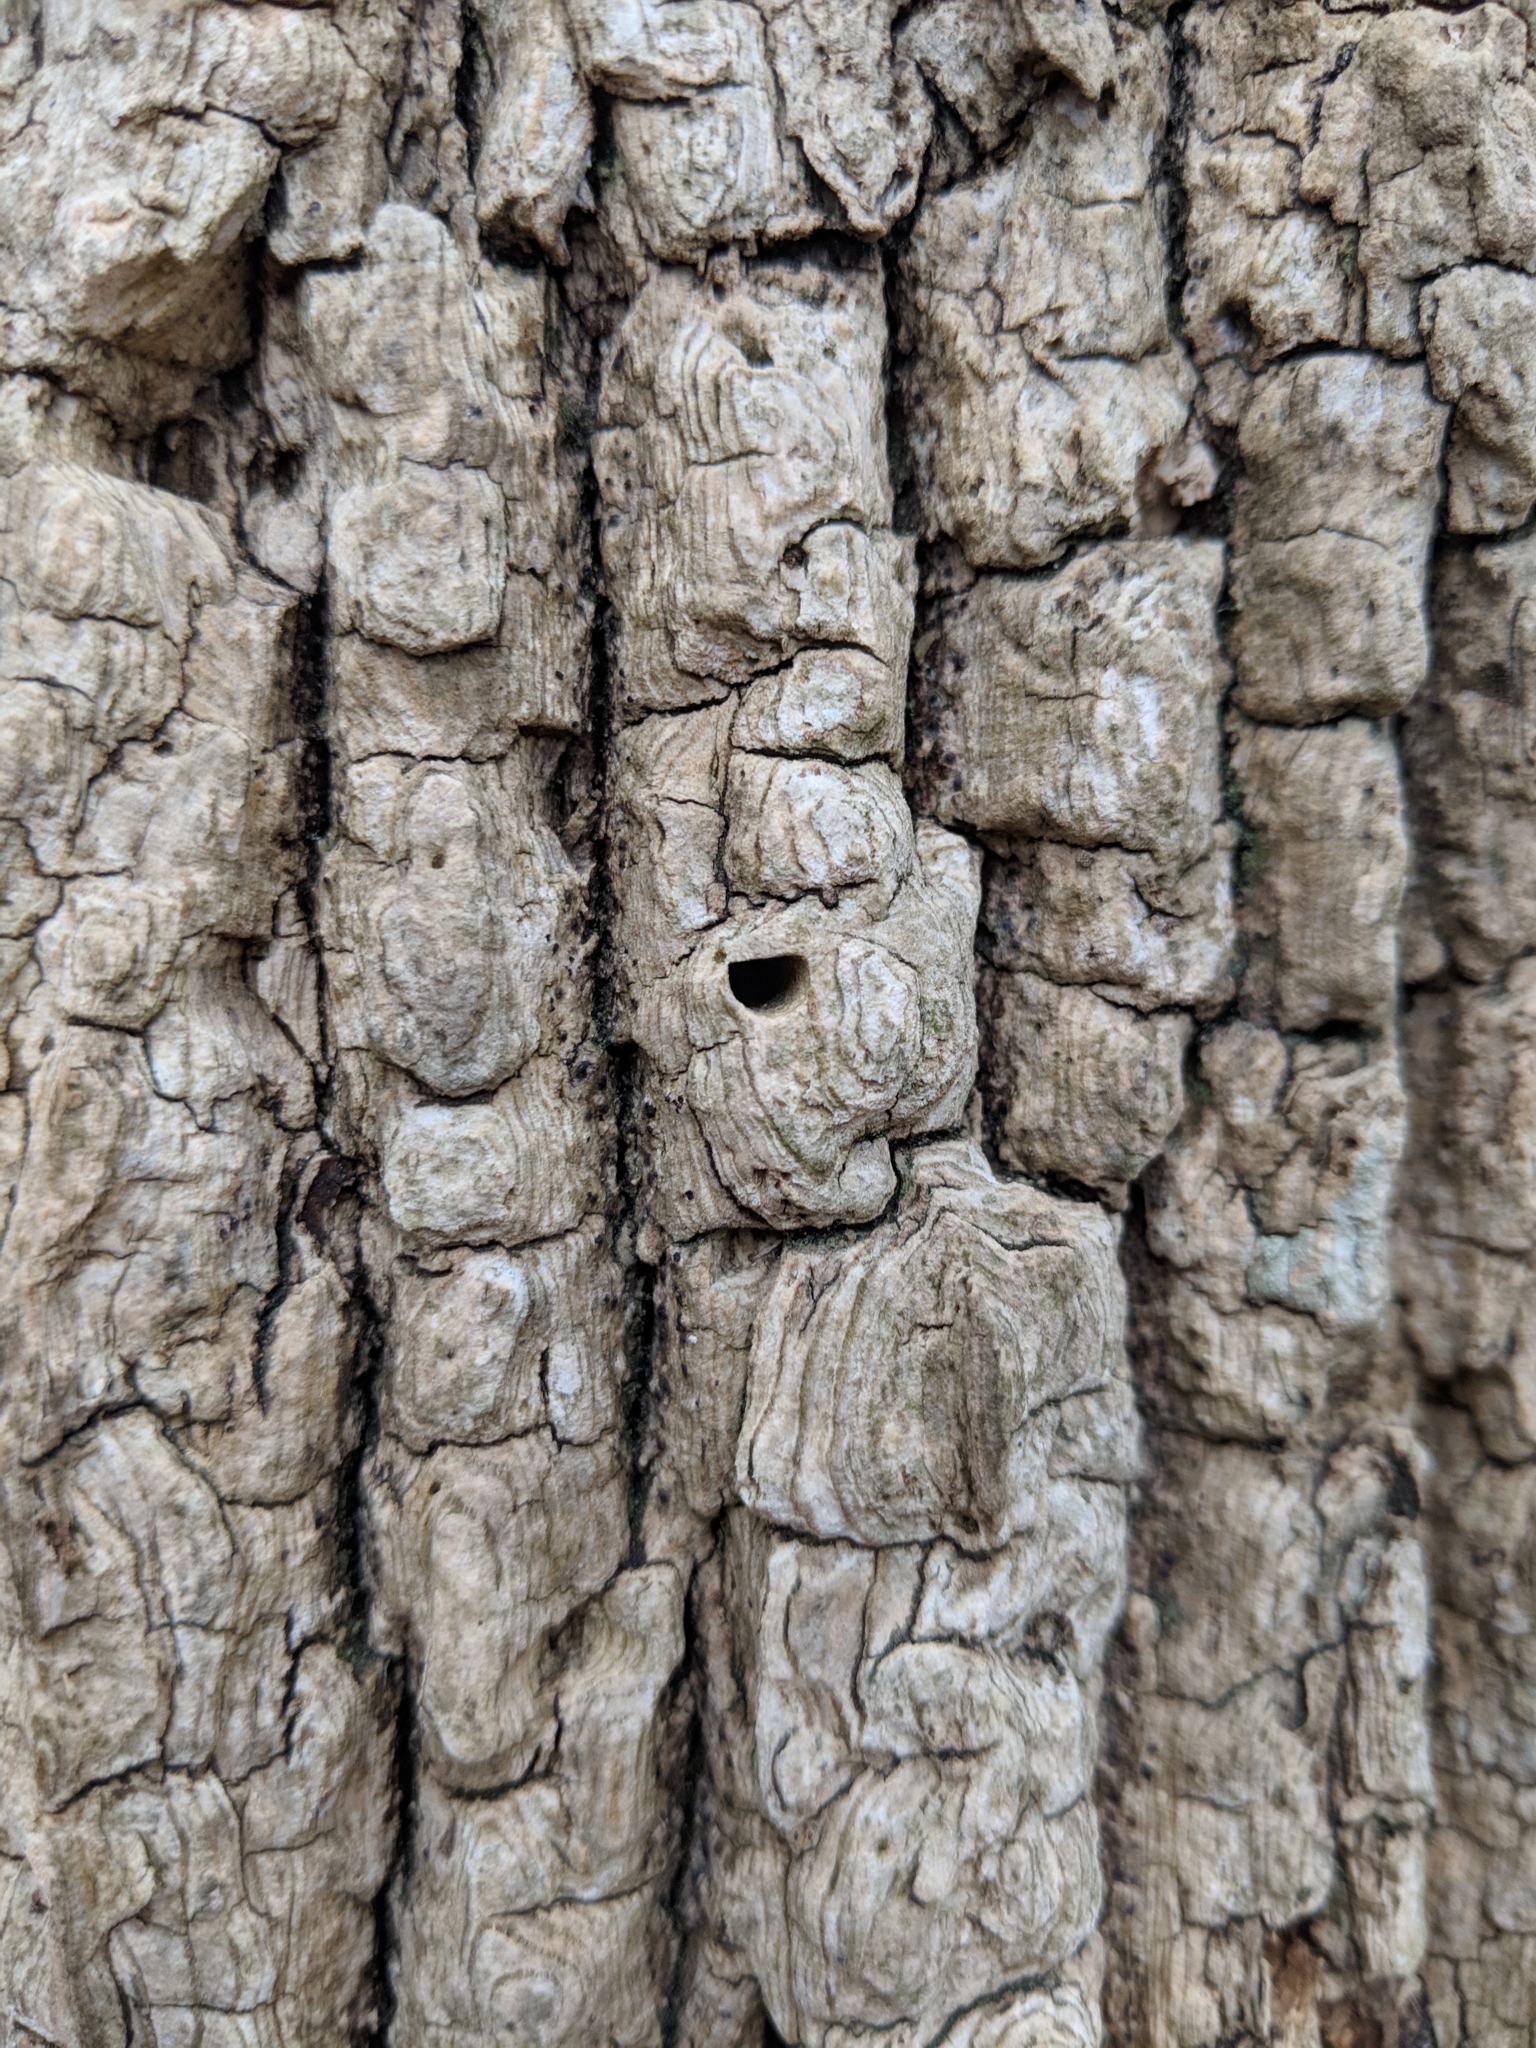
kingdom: Animalia
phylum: Arthropoda
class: Insecta
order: Coleoptera
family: Buprestidae
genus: Agrilus
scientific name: Agrilus planipennis
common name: Emerald ash borer
